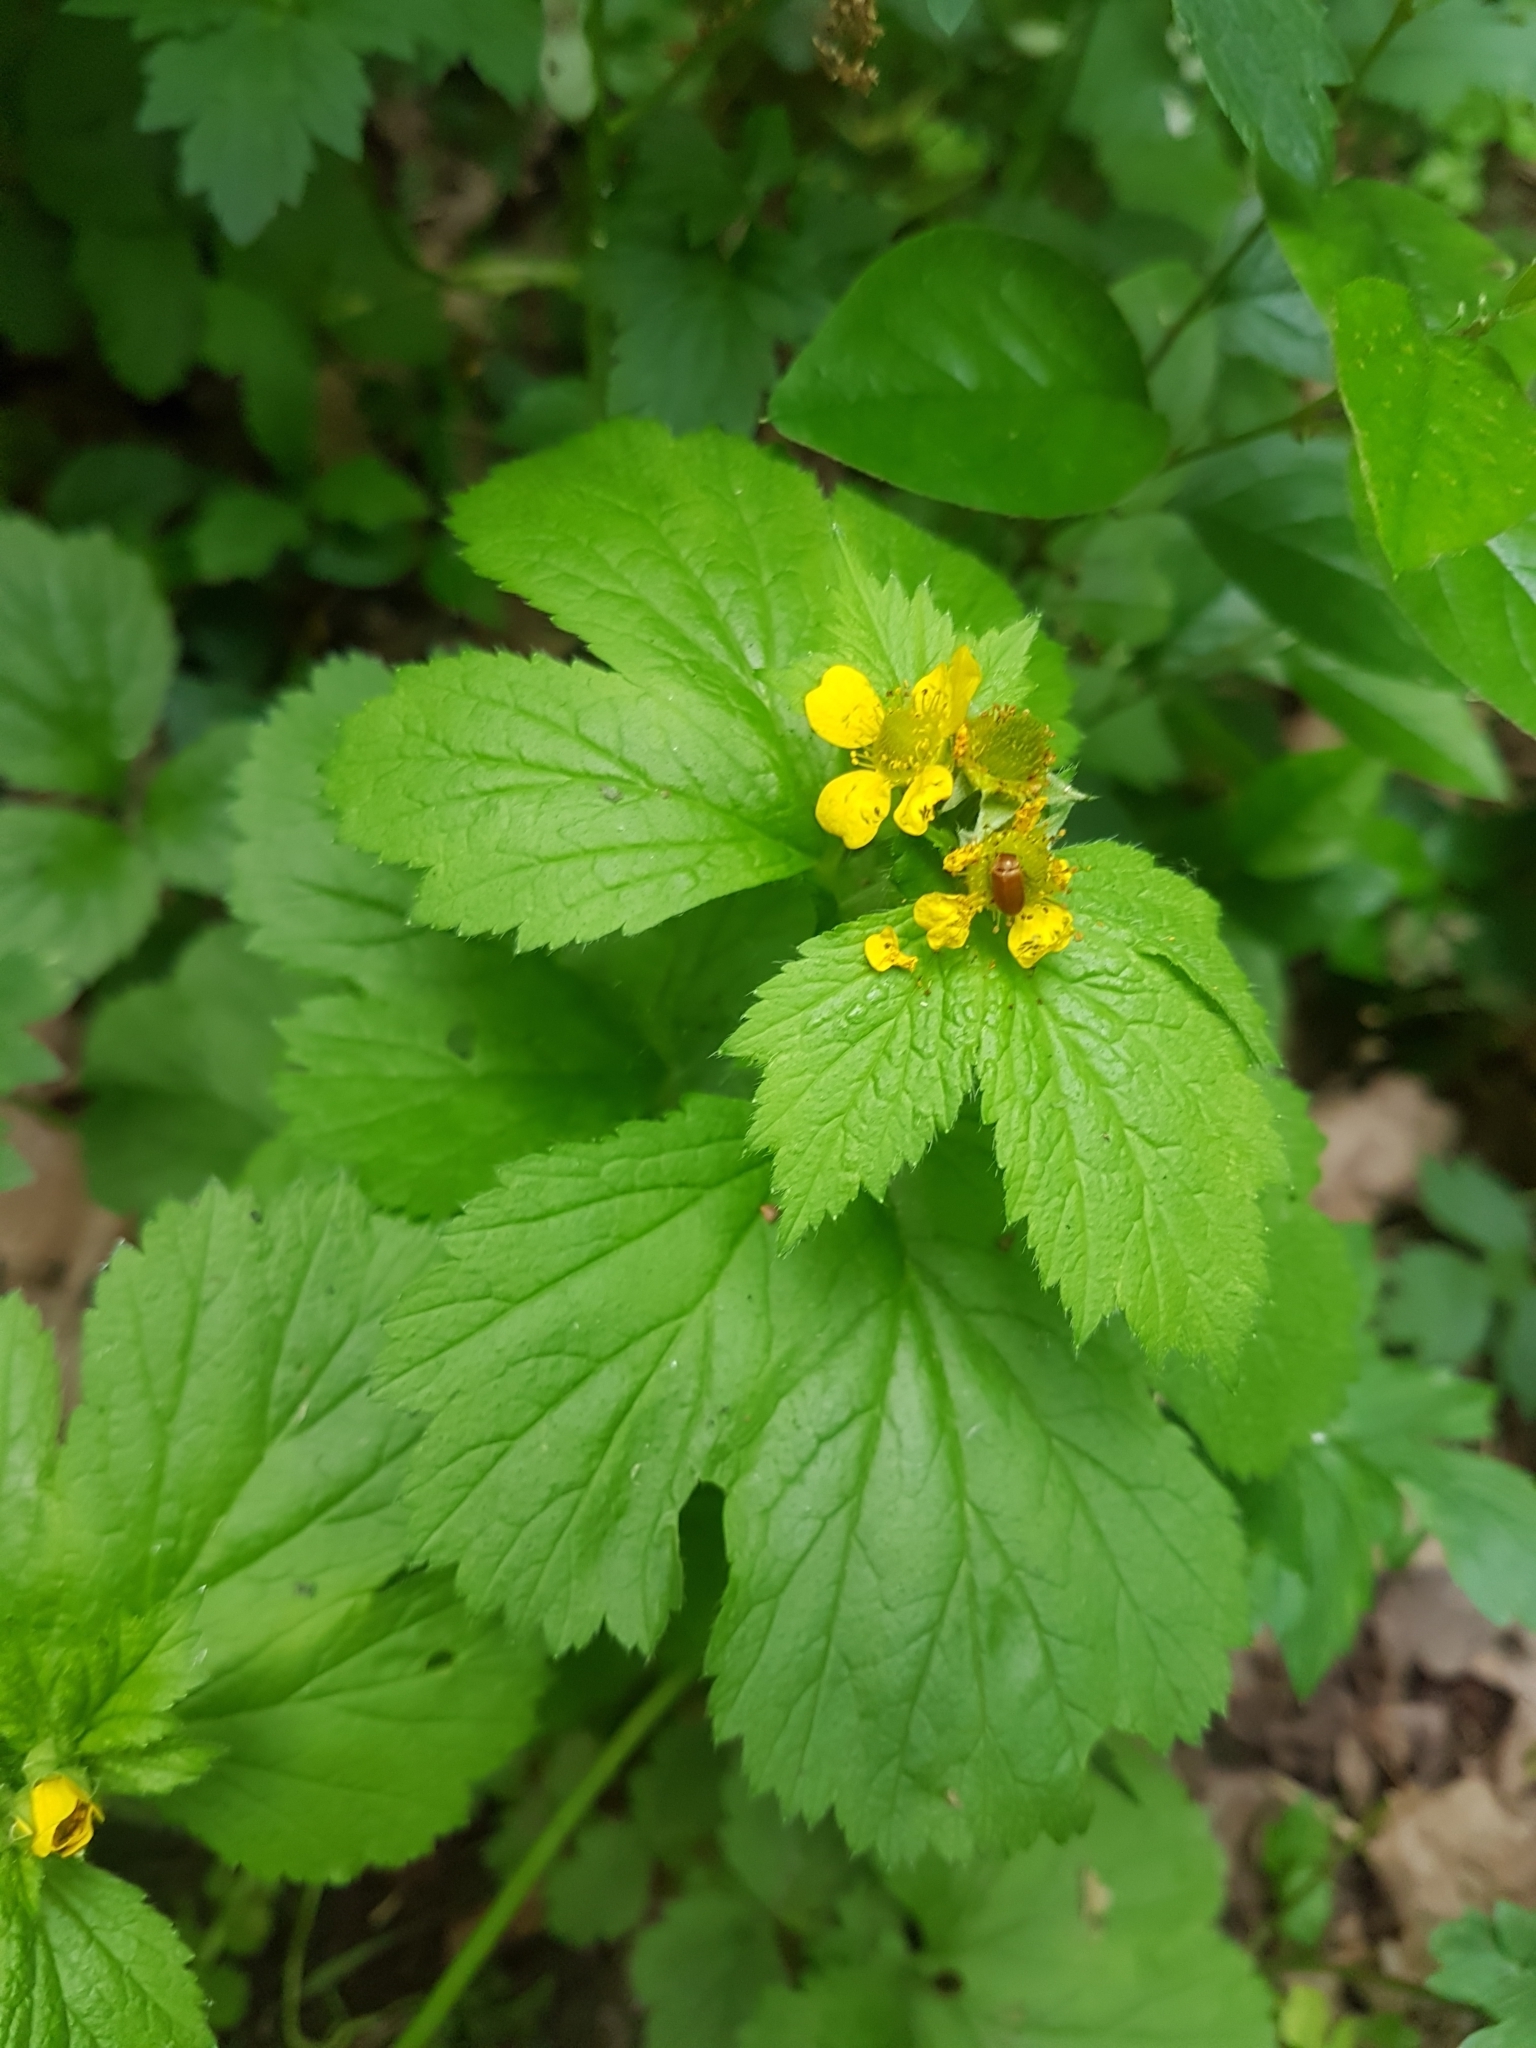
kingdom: Plantae
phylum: Tracheophyta
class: Magnoliopsida
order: Rosales
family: Rosaceae
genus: Geum
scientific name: Geum macrophyllum
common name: Large-leaved avens
